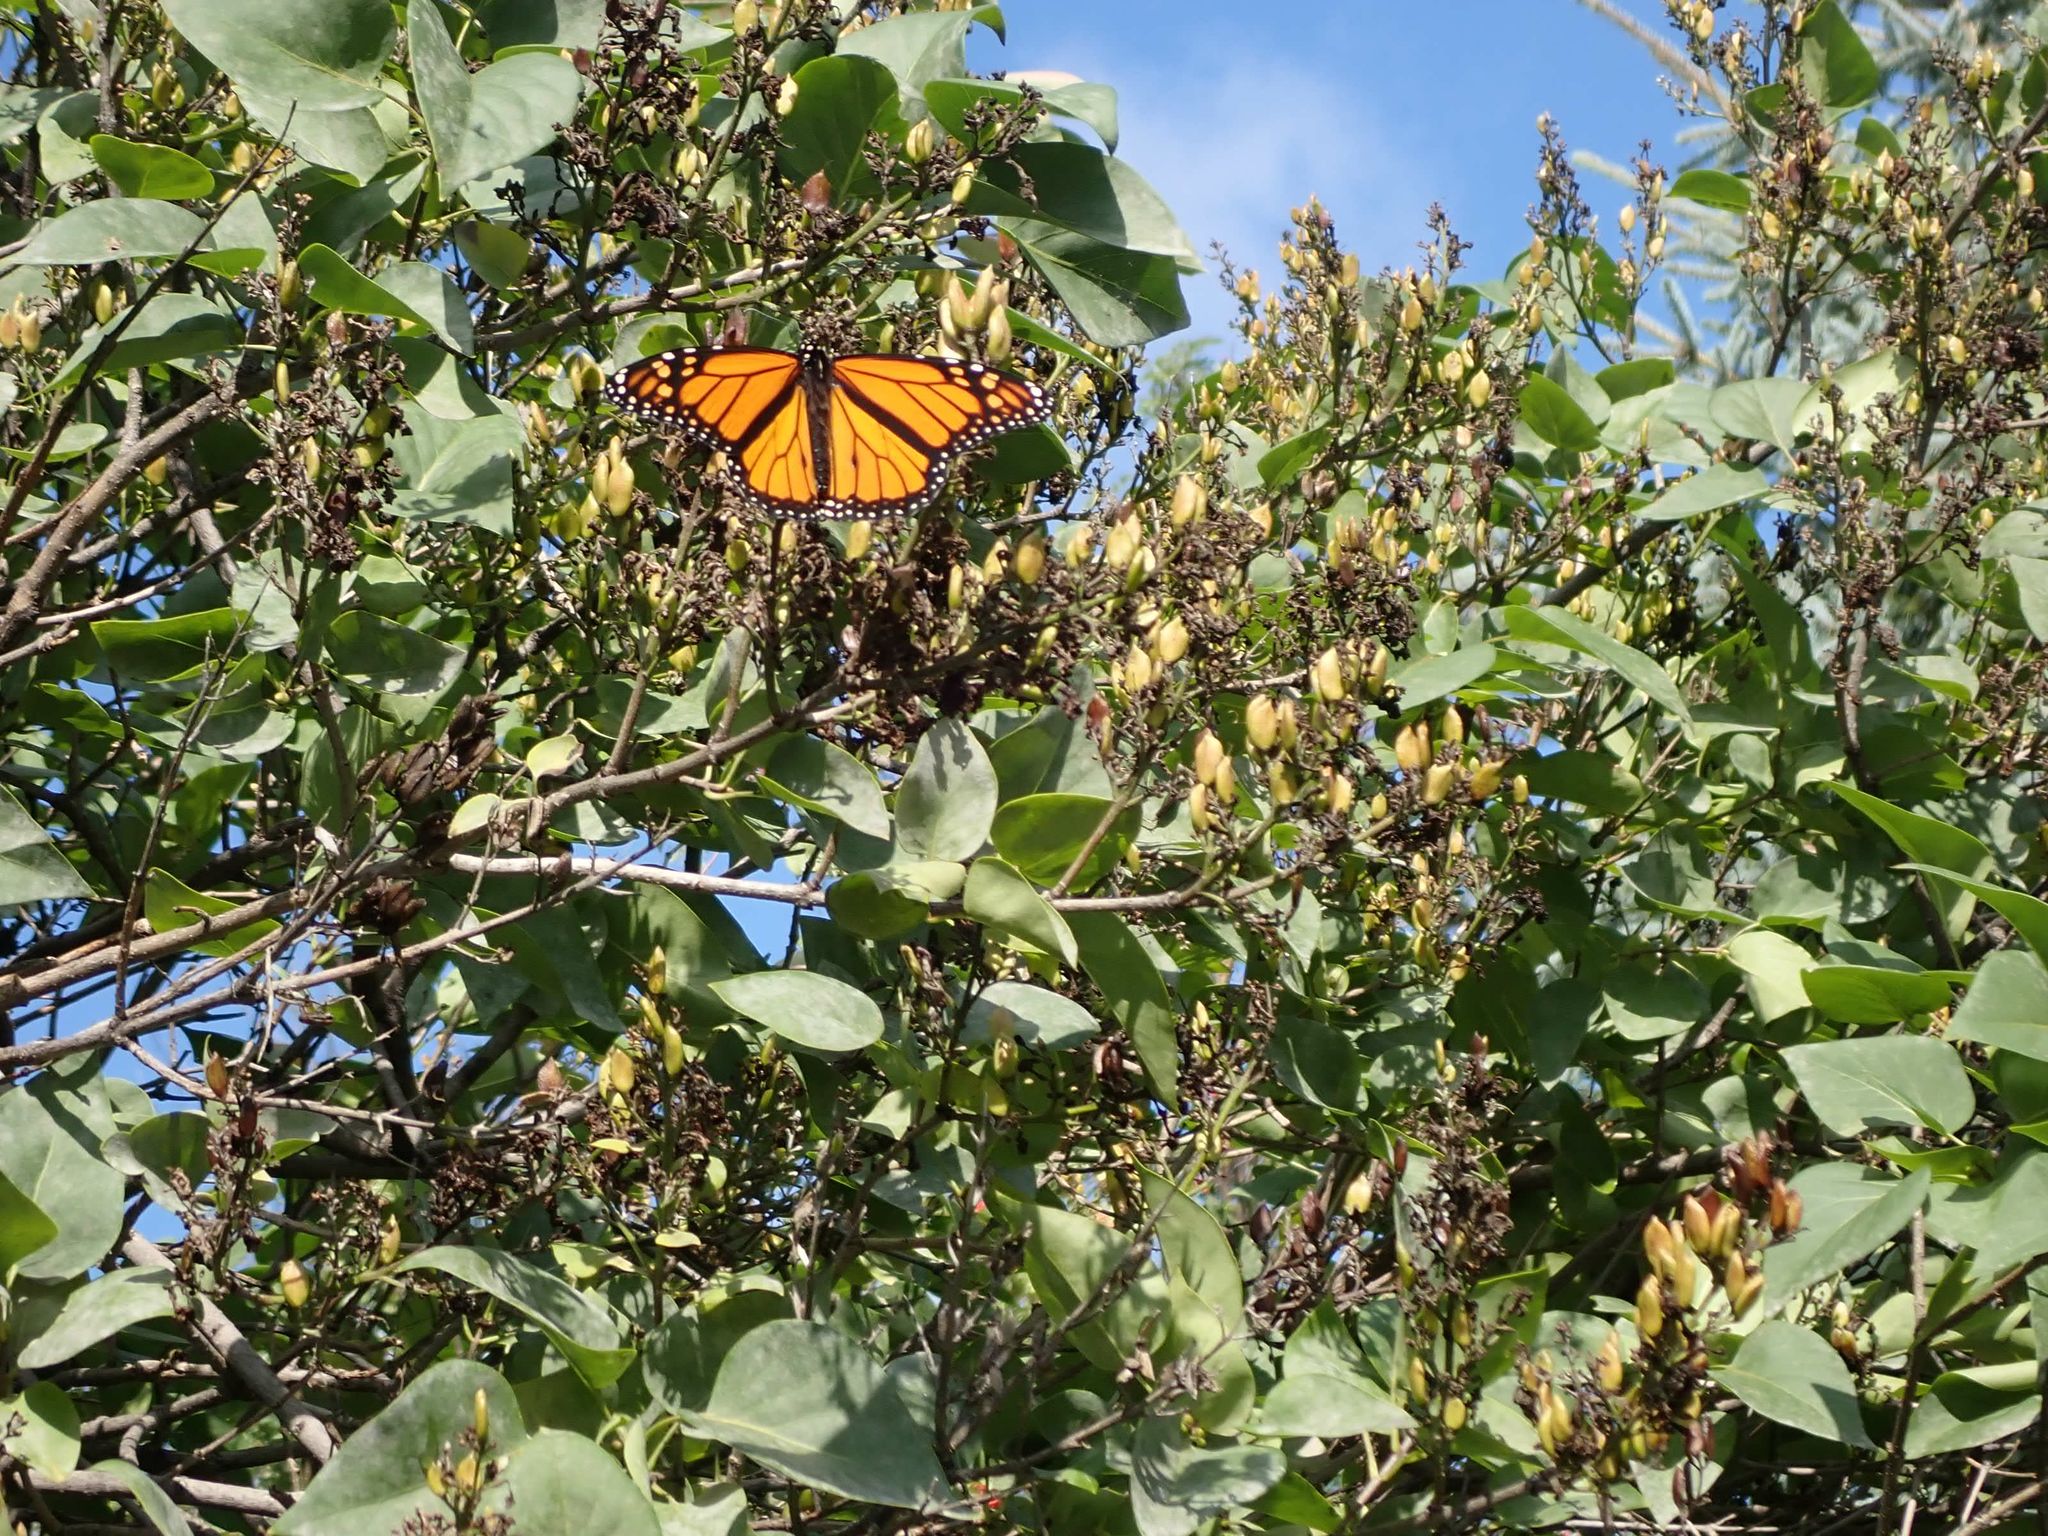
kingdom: Animalia
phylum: Arthropoda
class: Insecta
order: Lepidoptera
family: Nymphalidae
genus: Danaus
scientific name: Danaus plexippus
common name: Monarch
